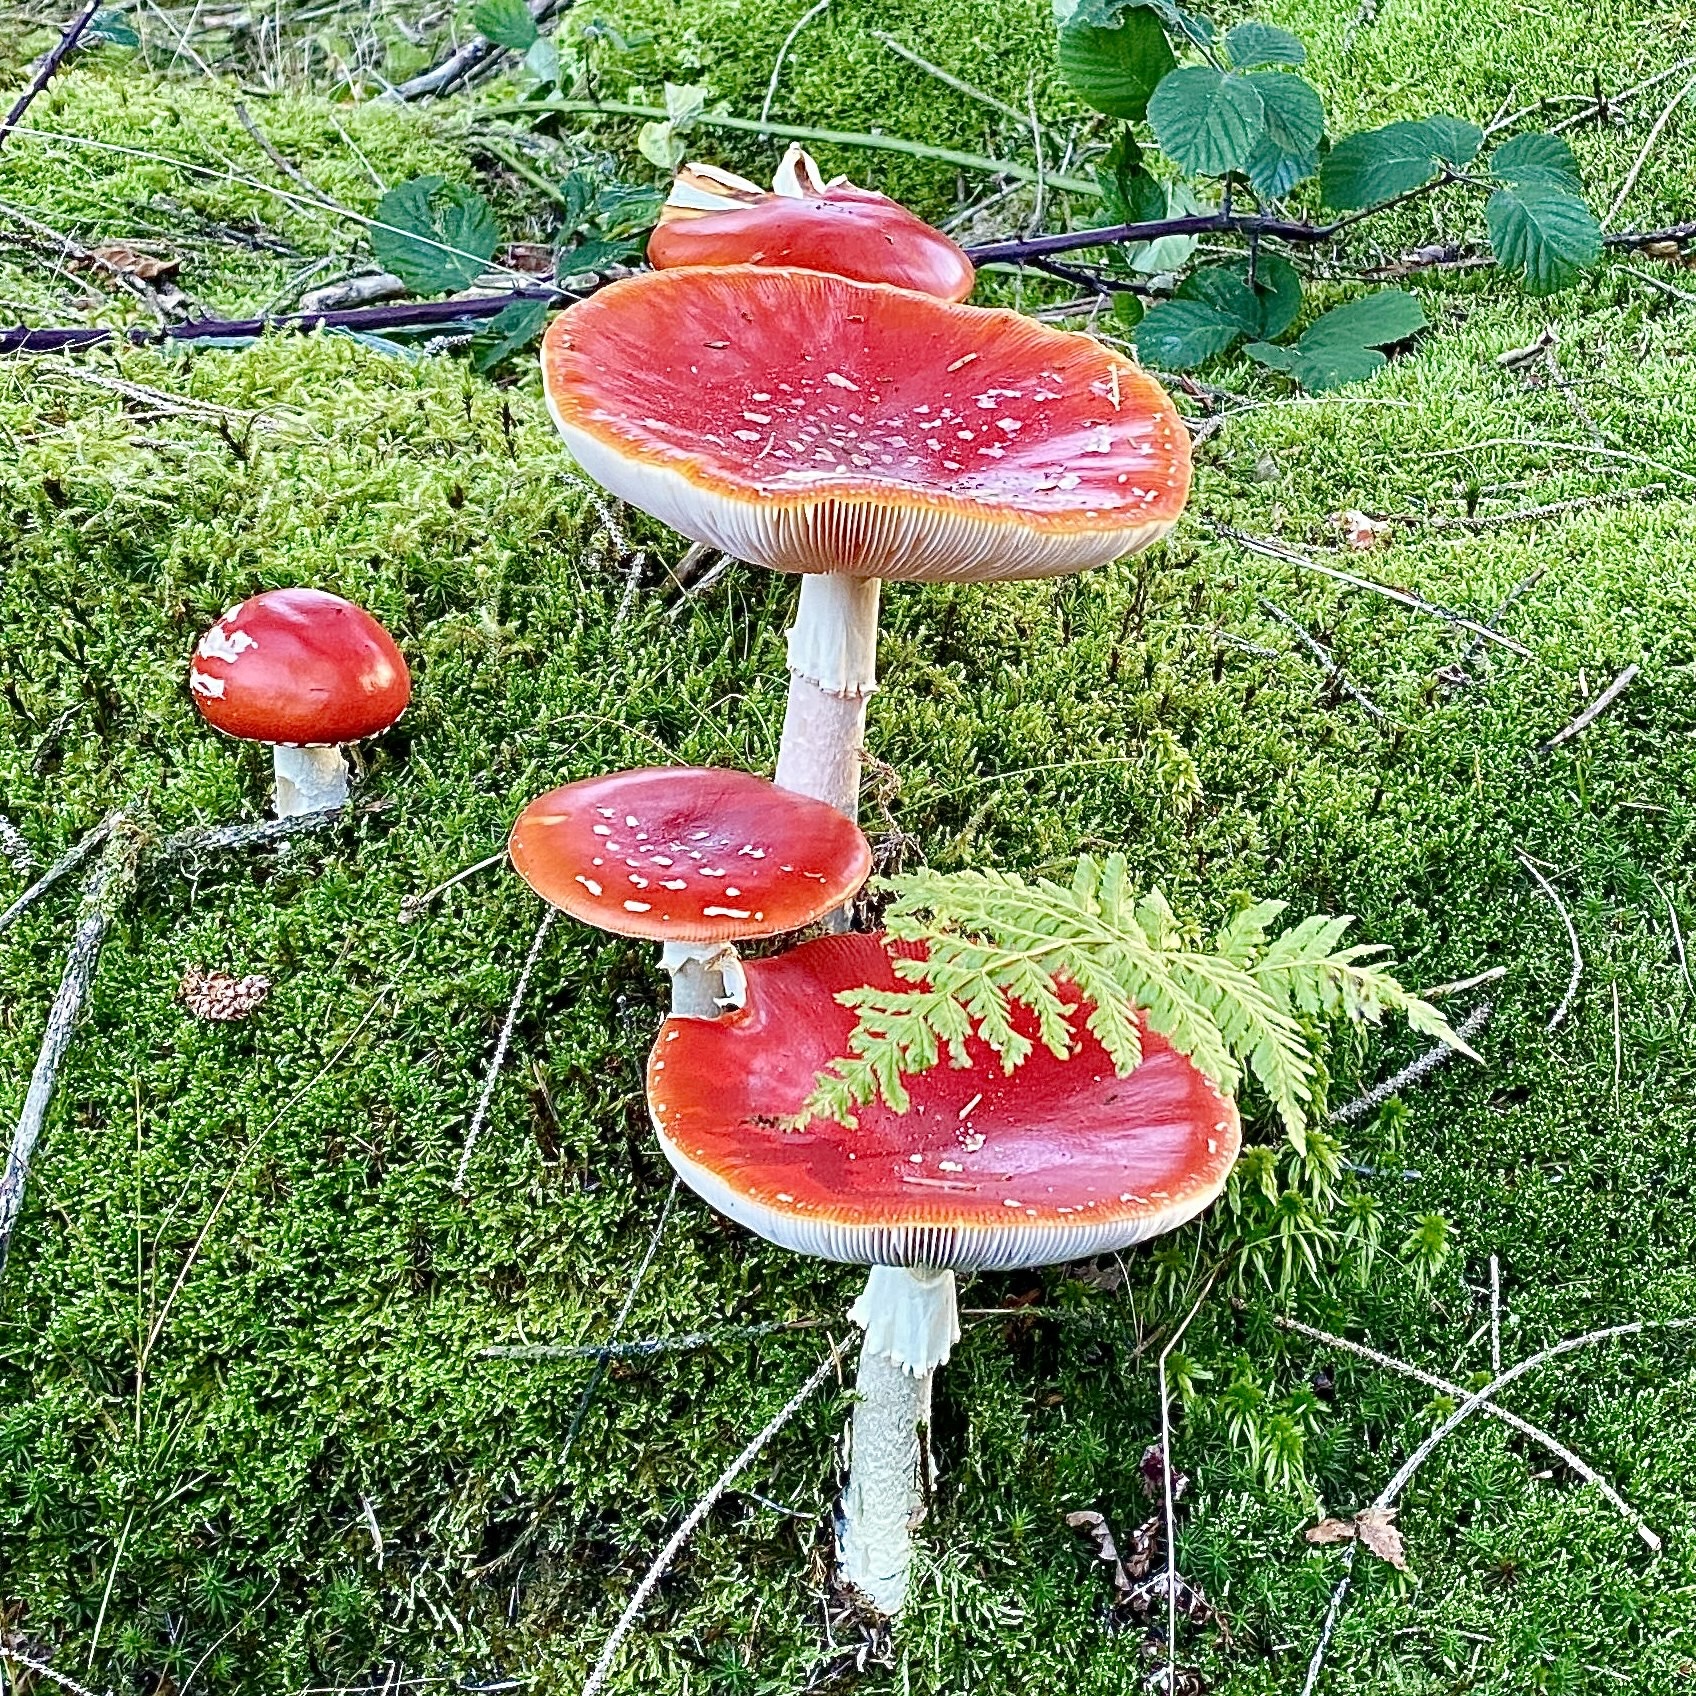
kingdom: Fungi
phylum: Basidiomycota
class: Agaricomycetes
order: Agaricales
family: Amanitaceae
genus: Amanita
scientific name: Amanita muscaria
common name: Fly agaric
